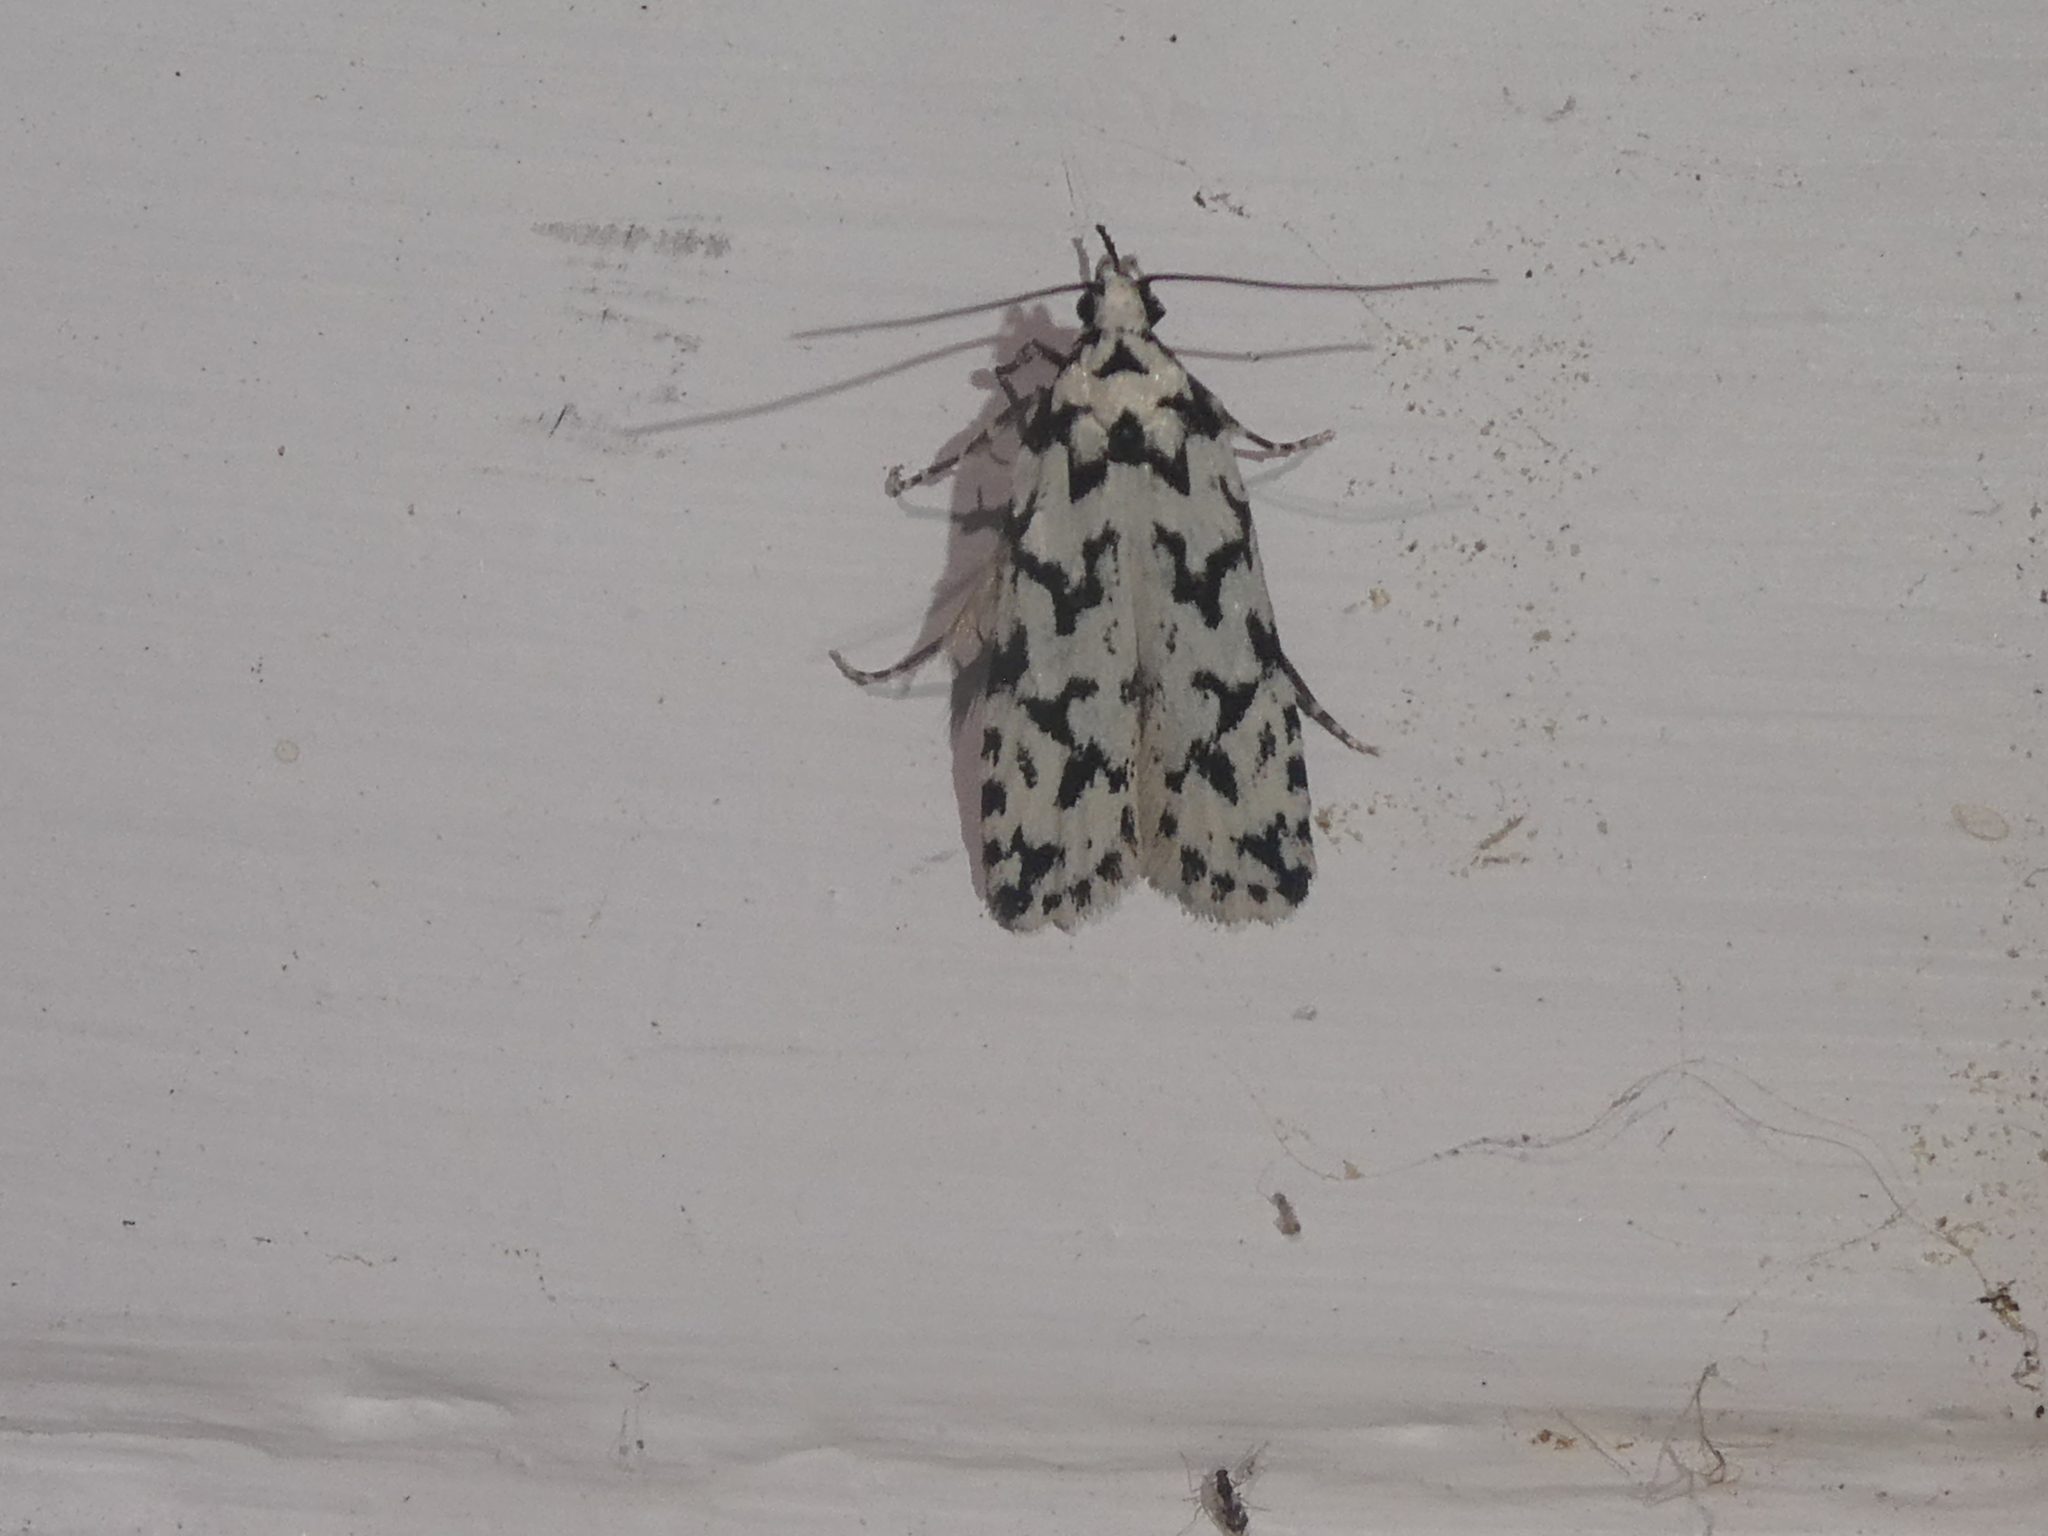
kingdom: Animalia
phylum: Arthropoda
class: Insecta
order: Lepidoptera
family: Oecophoridae
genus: Izatha
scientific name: Izatha katadiktya
